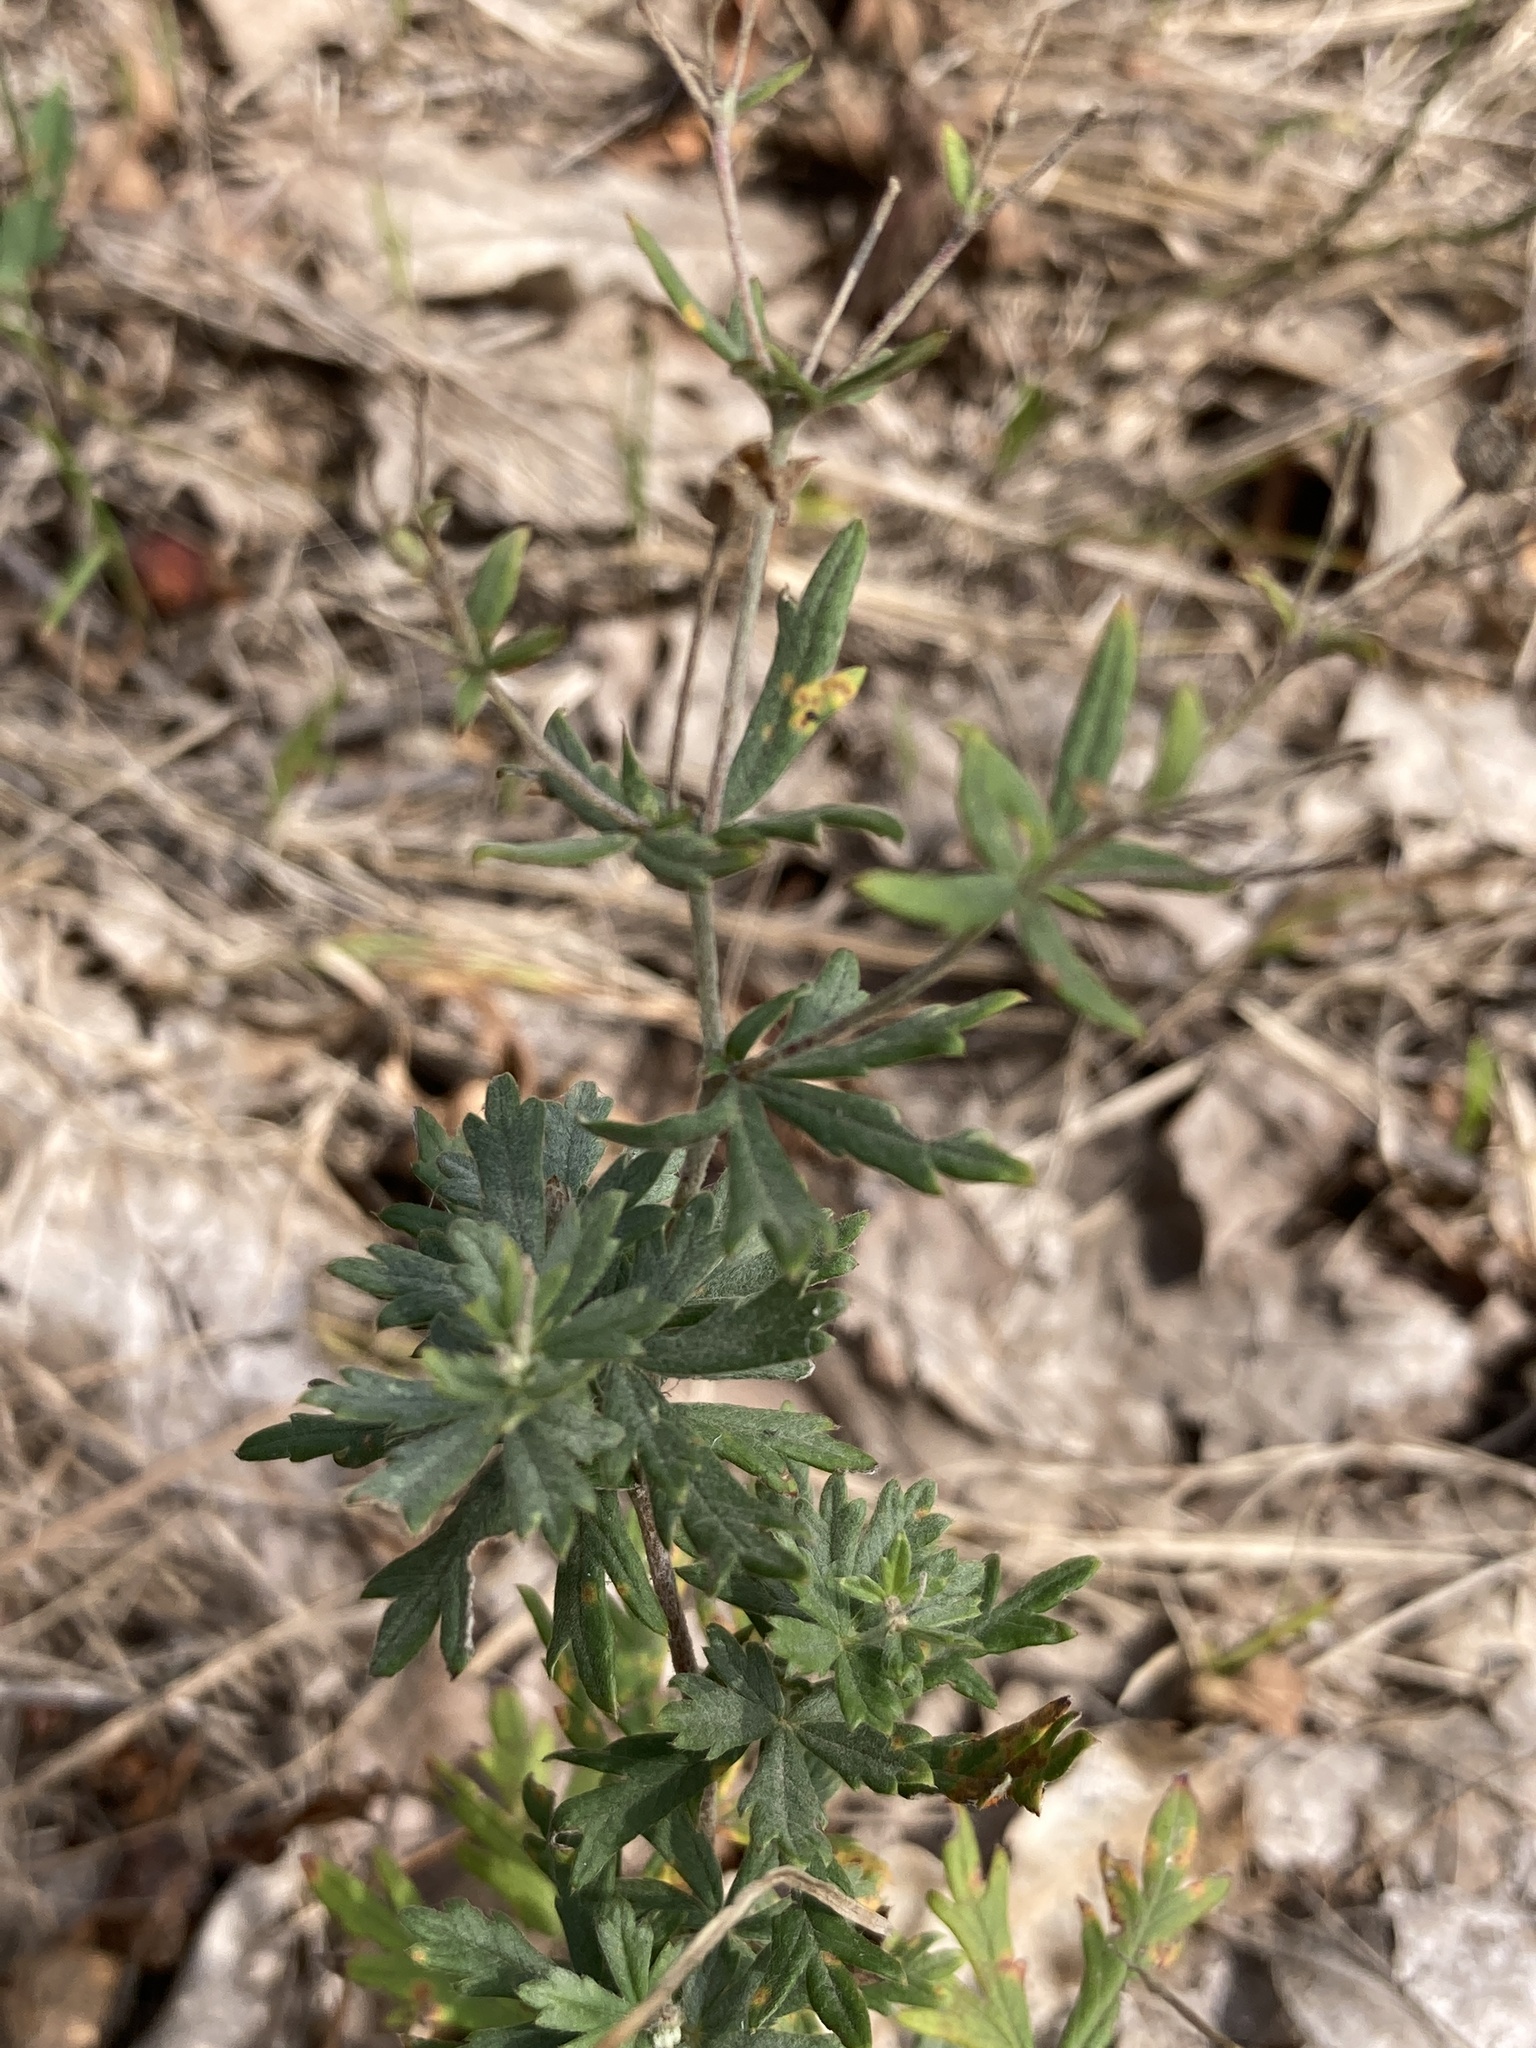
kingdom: Plantae
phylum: Tracheophyta
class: Magnoliopsida
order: Rosales
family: Rosaceae
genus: Potentilla
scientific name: Potentilla argentea
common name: Hoary cinquefoil
